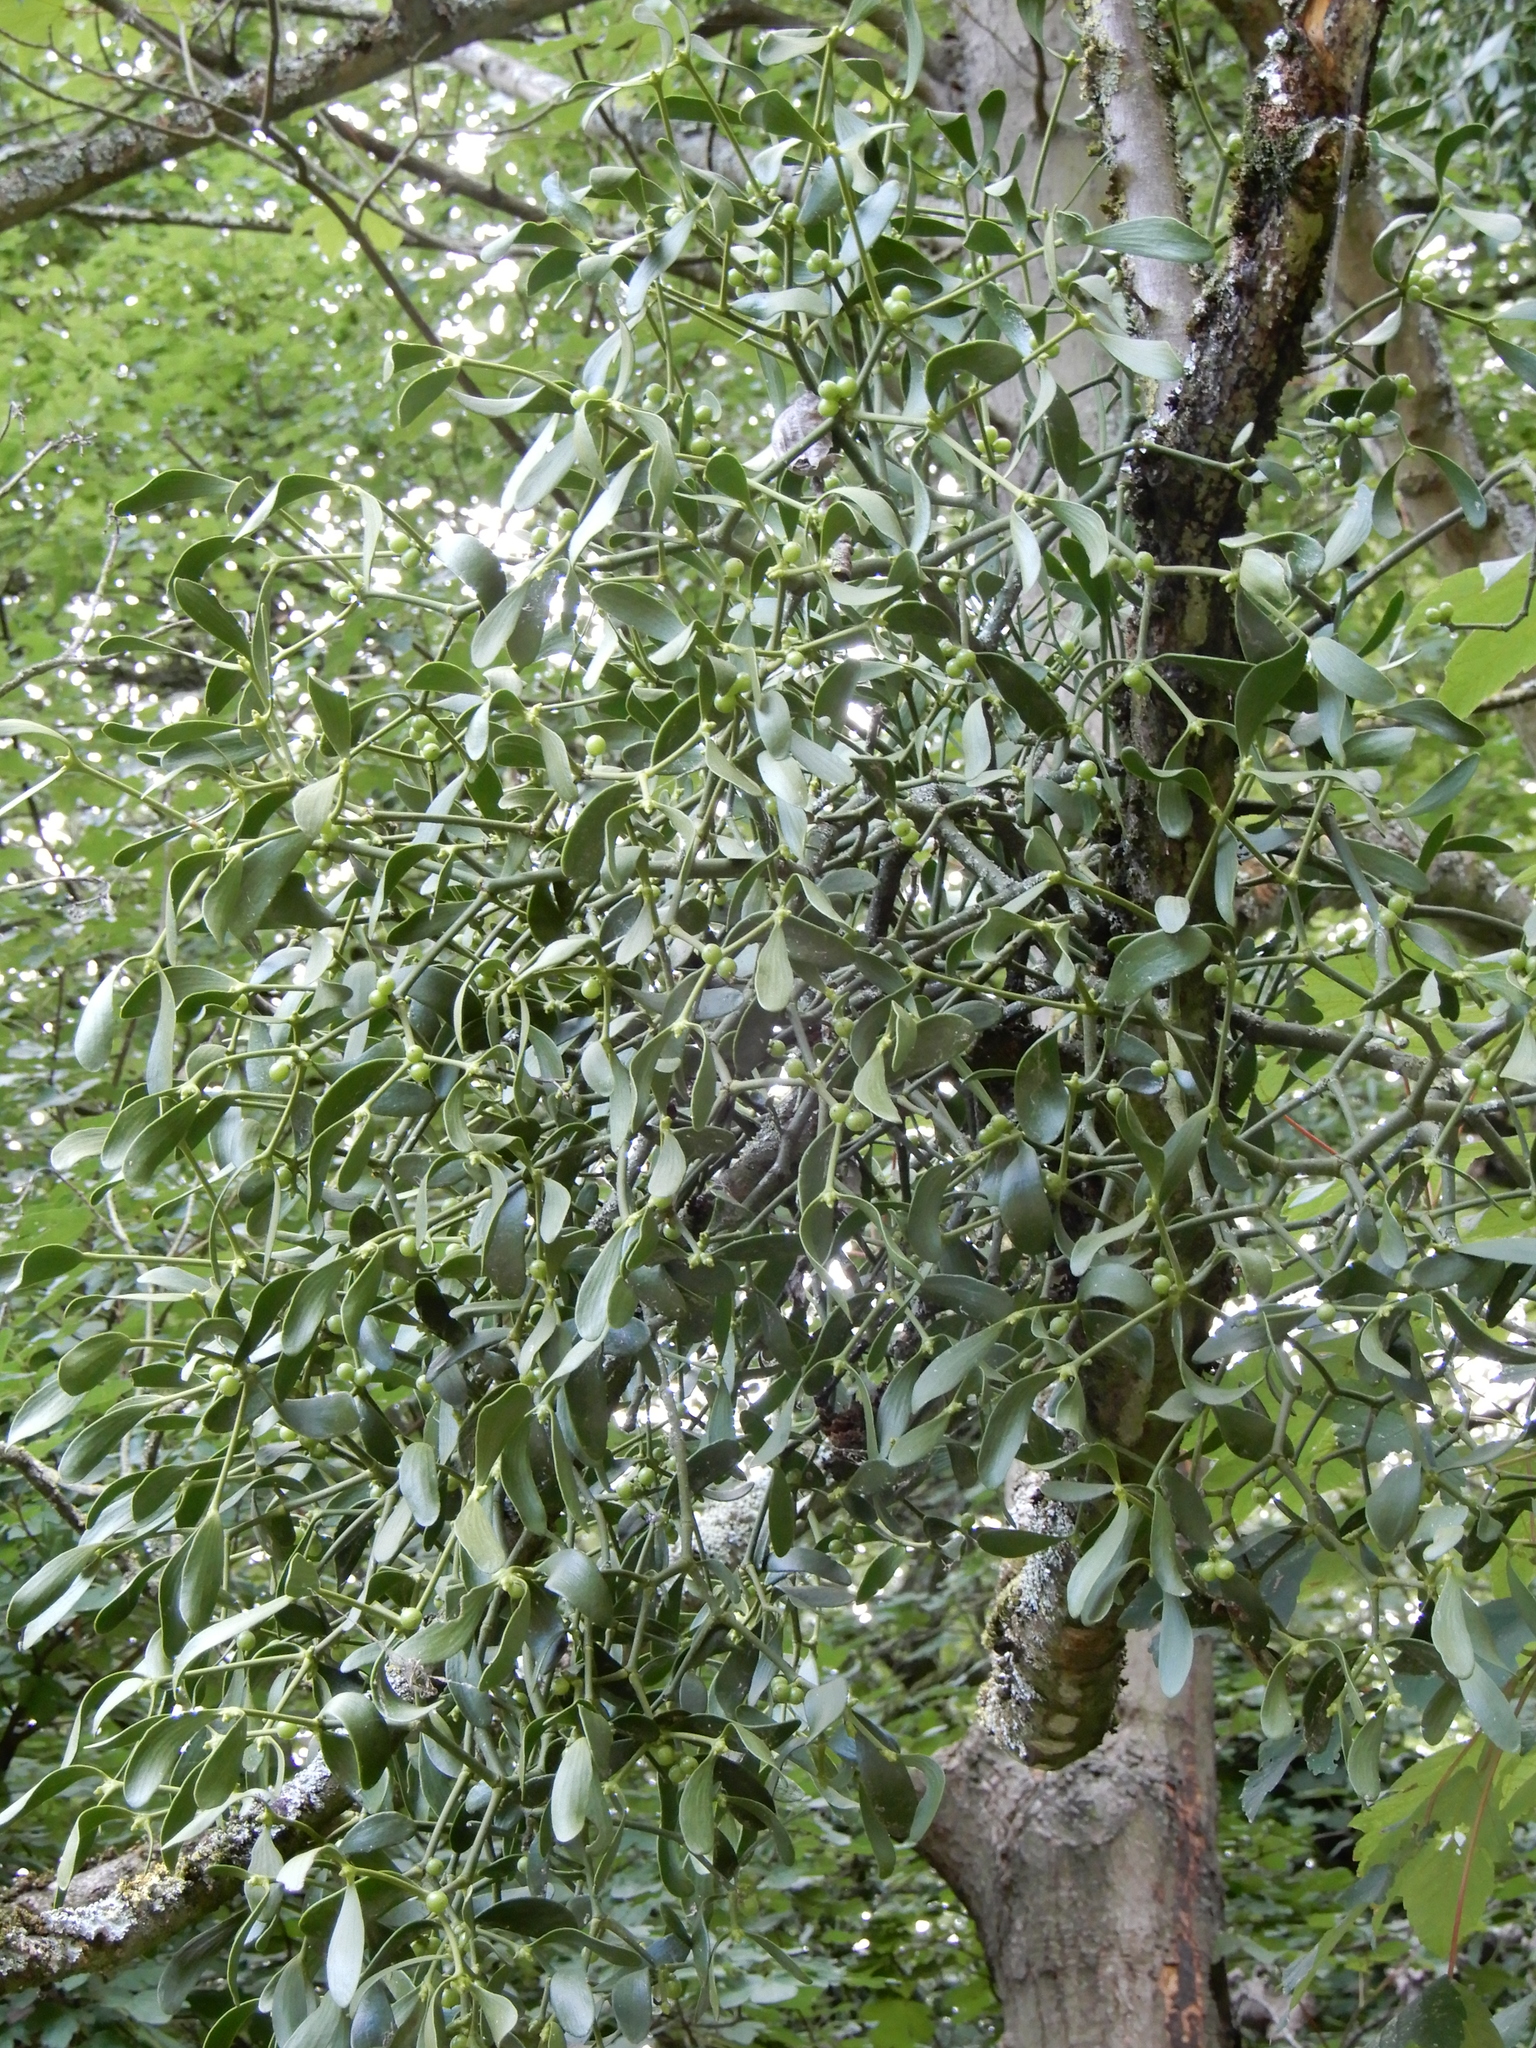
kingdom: Plantae
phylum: Tracheophyta
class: Magnoliopsida
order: Santalales
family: Viscaceae
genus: Viscum
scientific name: Viscum album
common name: Mistletoe
